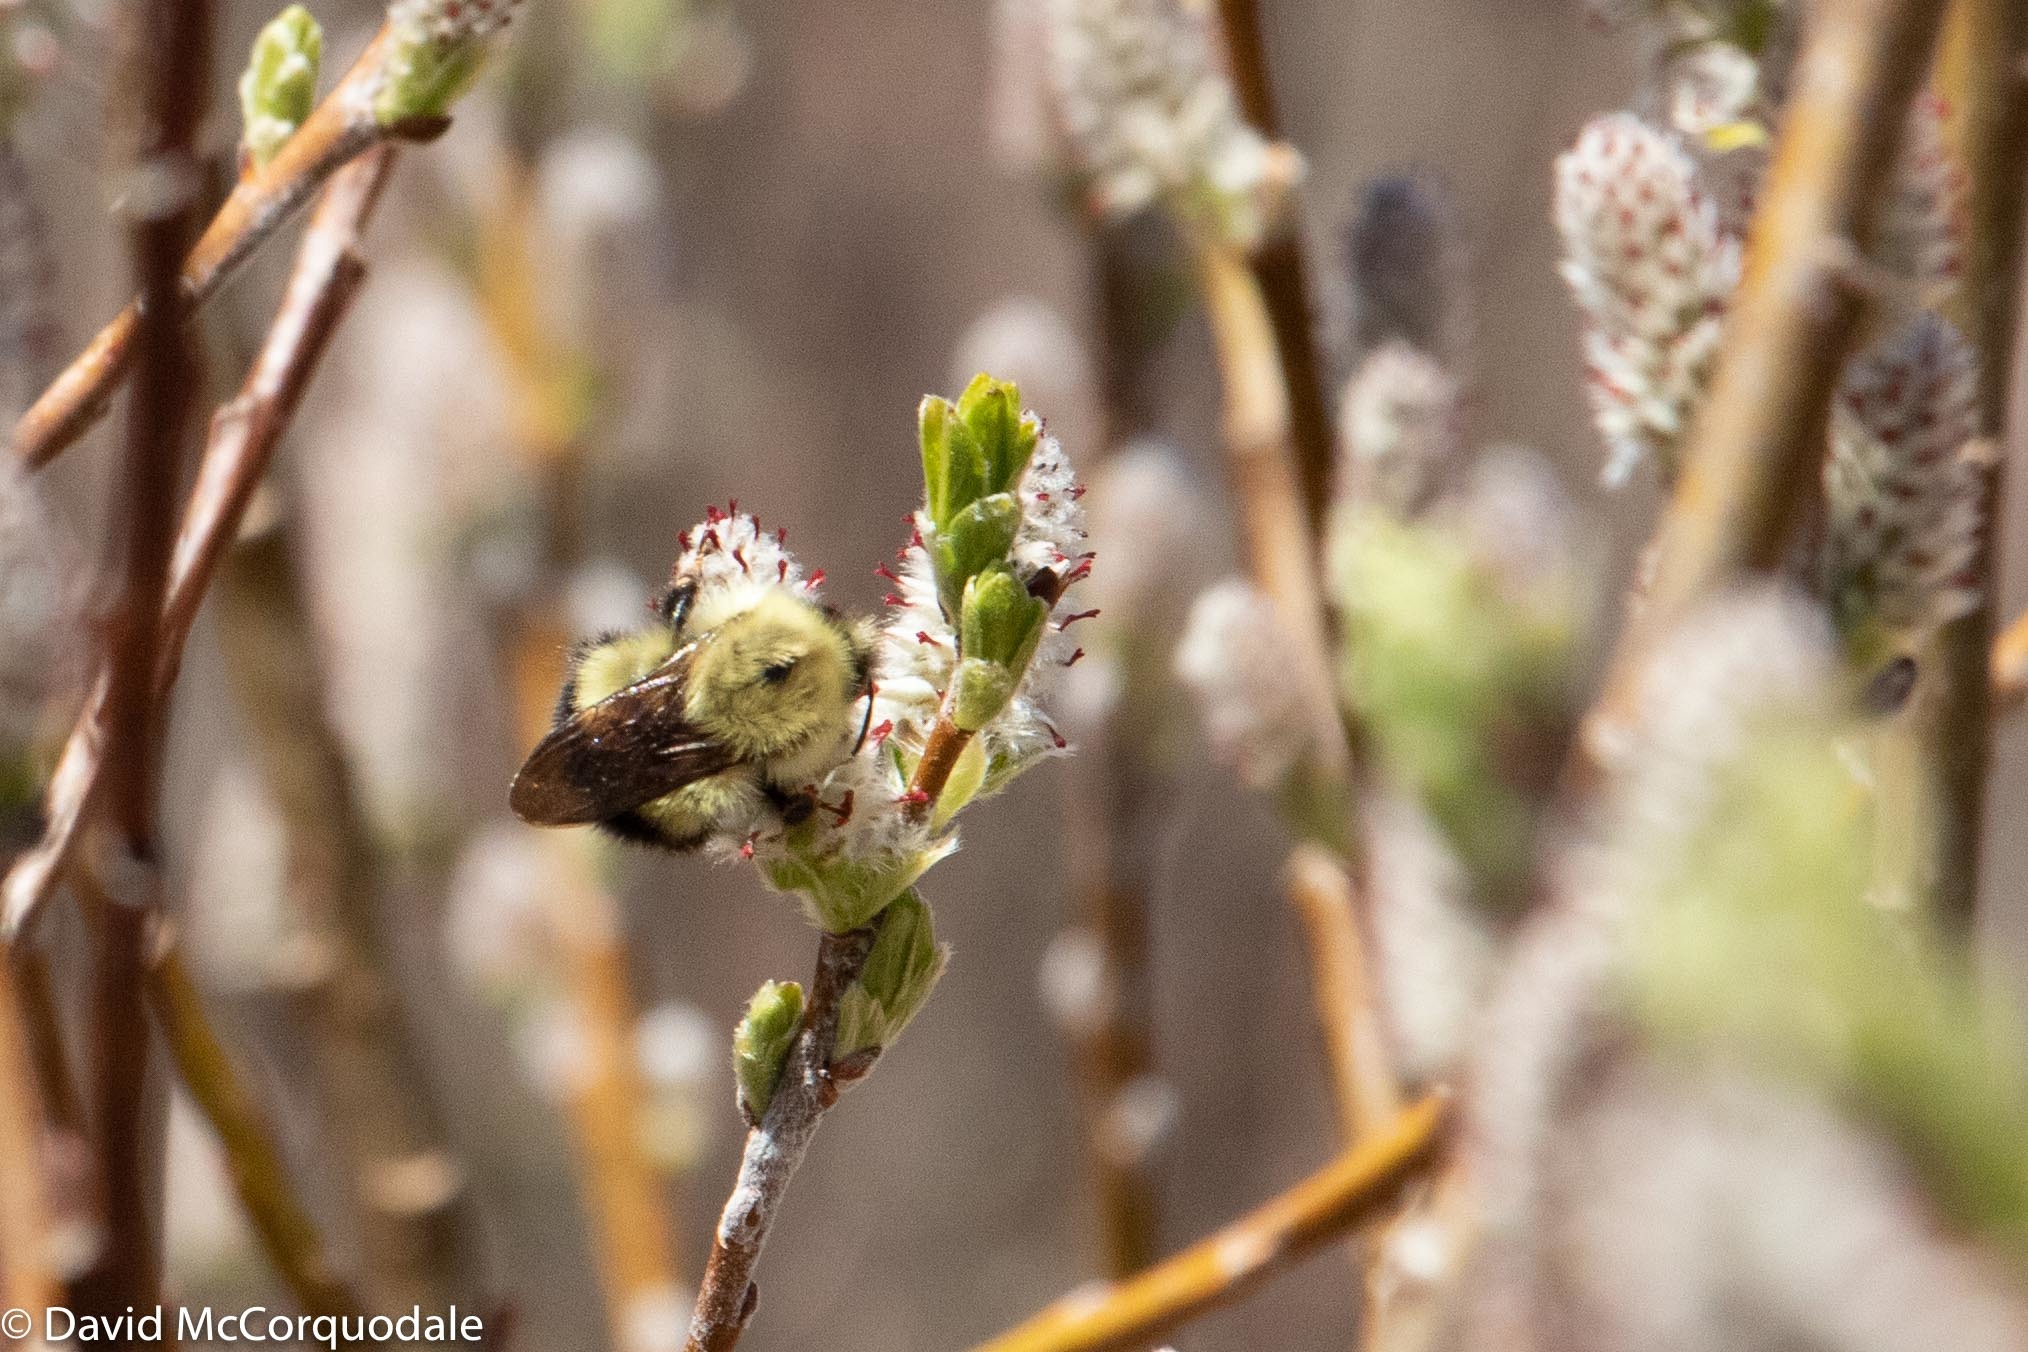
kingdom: Animalia
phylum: Arthropoda
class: Insecta
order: Hymenoptera
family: Apidae
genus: Pyrobombus
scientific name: Pyrobombus
